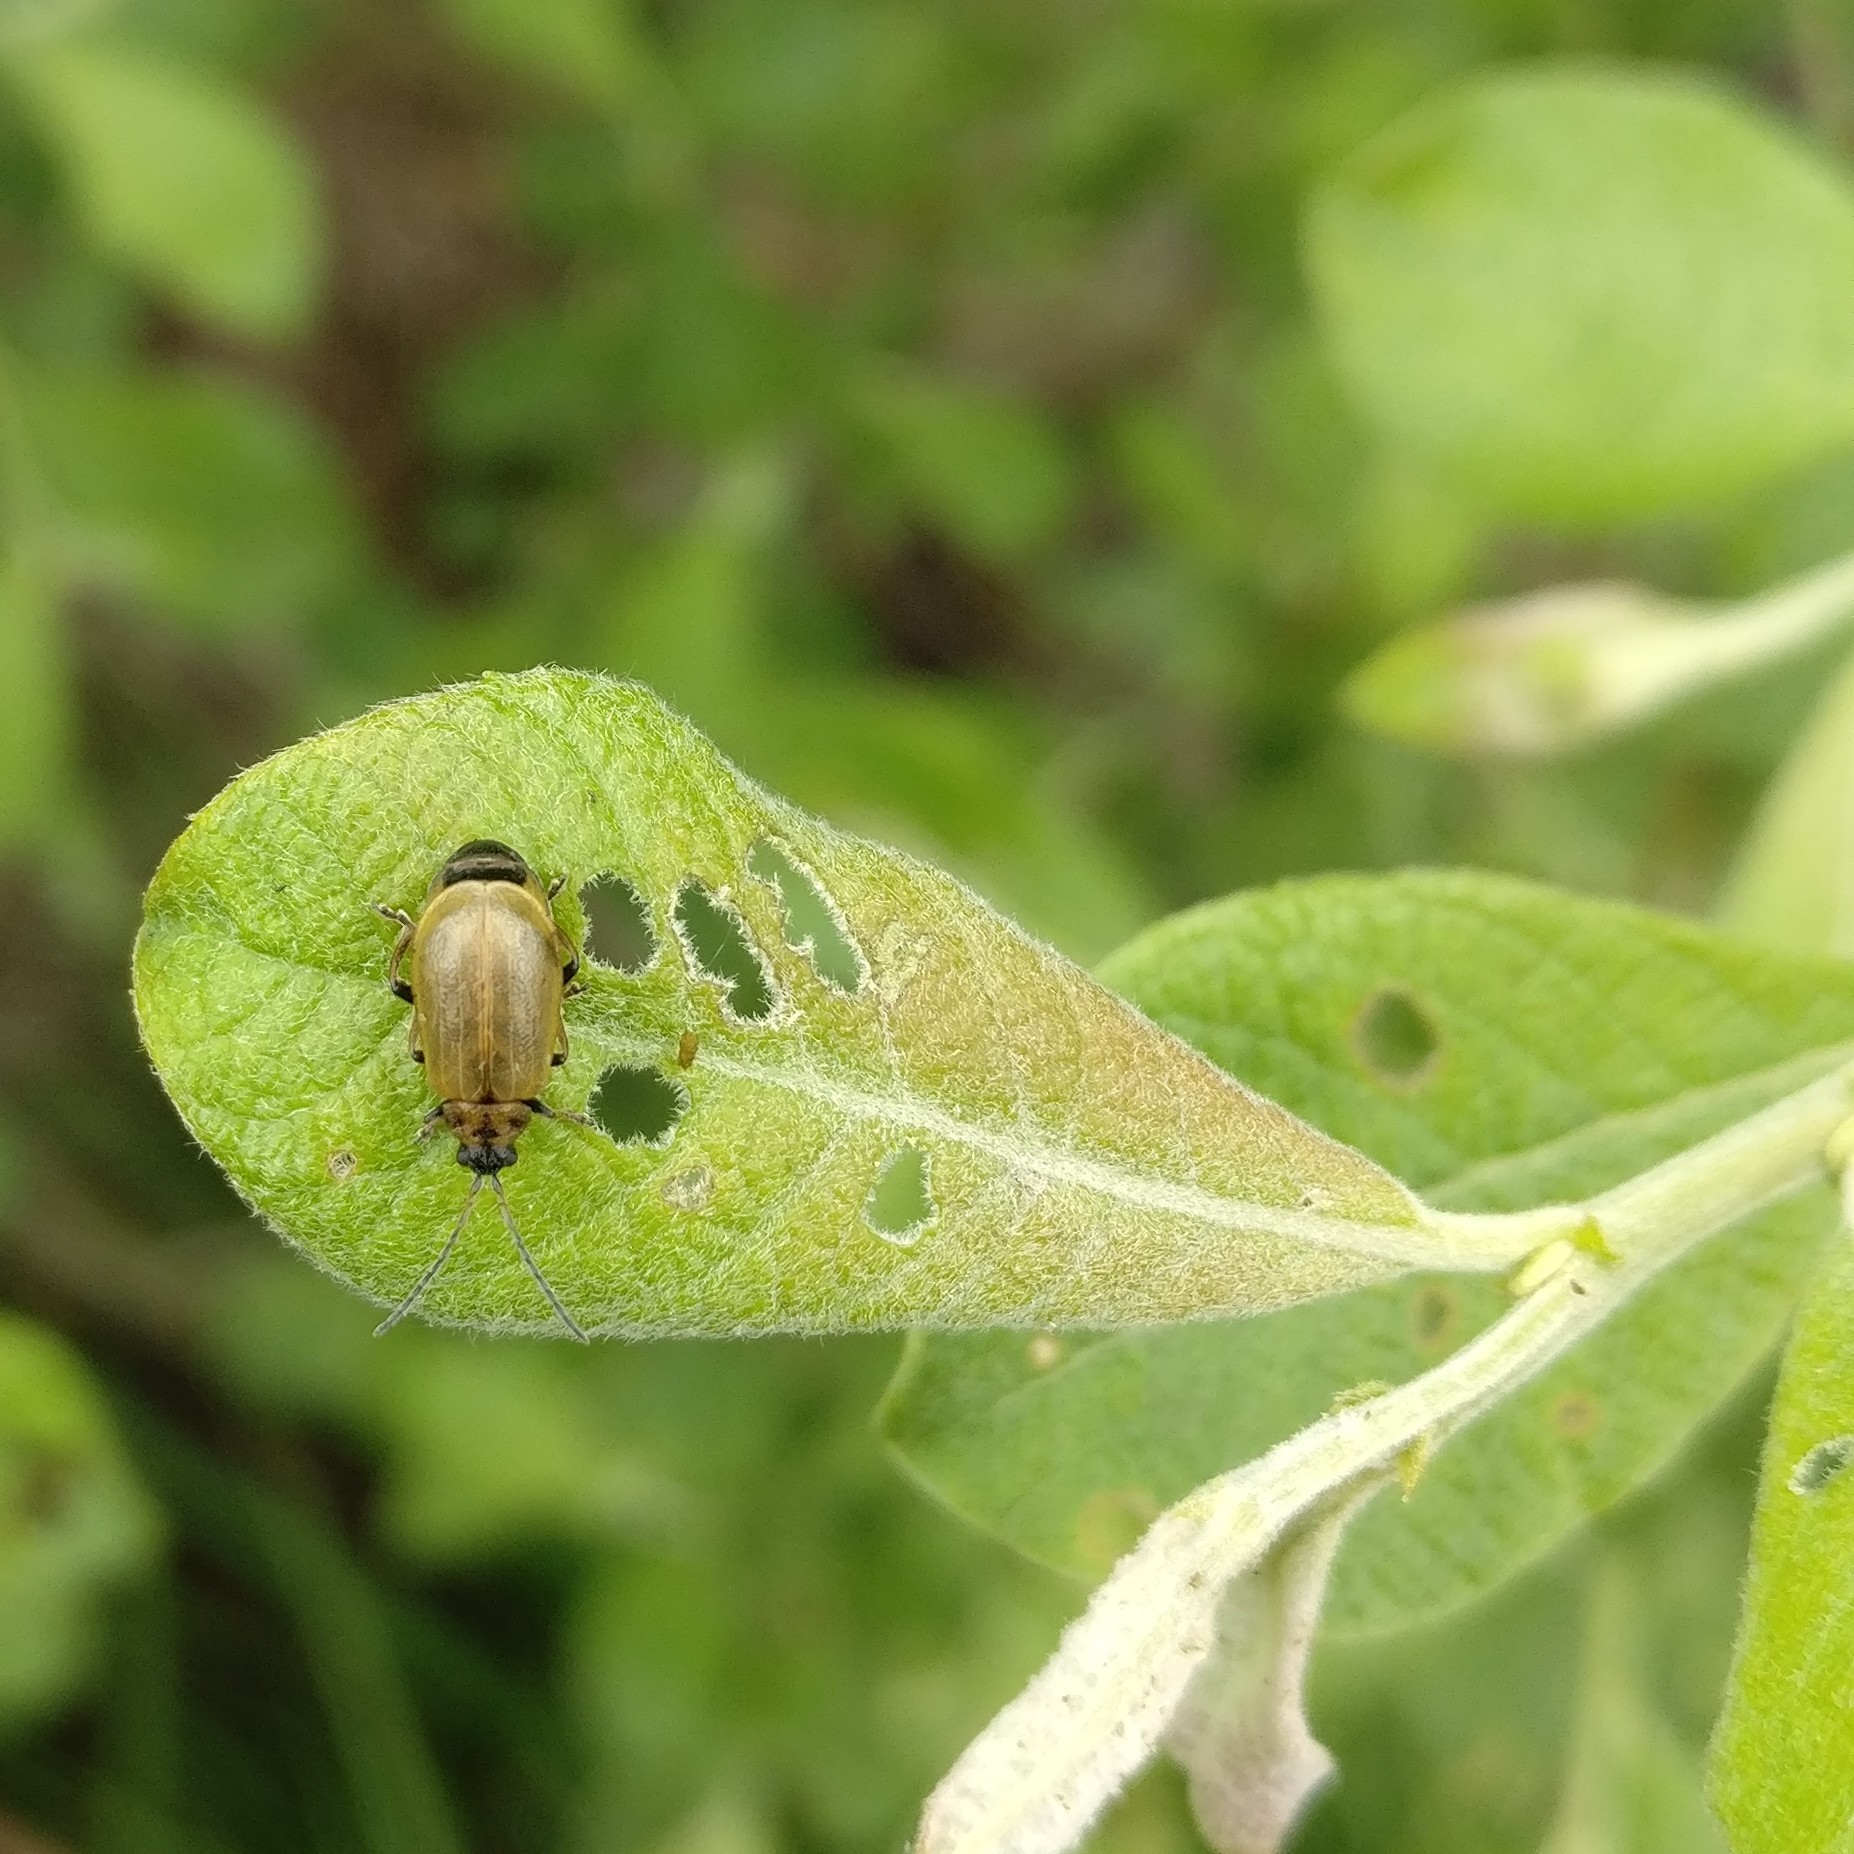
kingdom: Animalia
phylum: Arthropoda
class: Insecta
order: Coleoptera
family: Chrysomelidae
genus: Lochmaea
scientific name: Lochmaea caprea
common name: Willow leaf beetle
